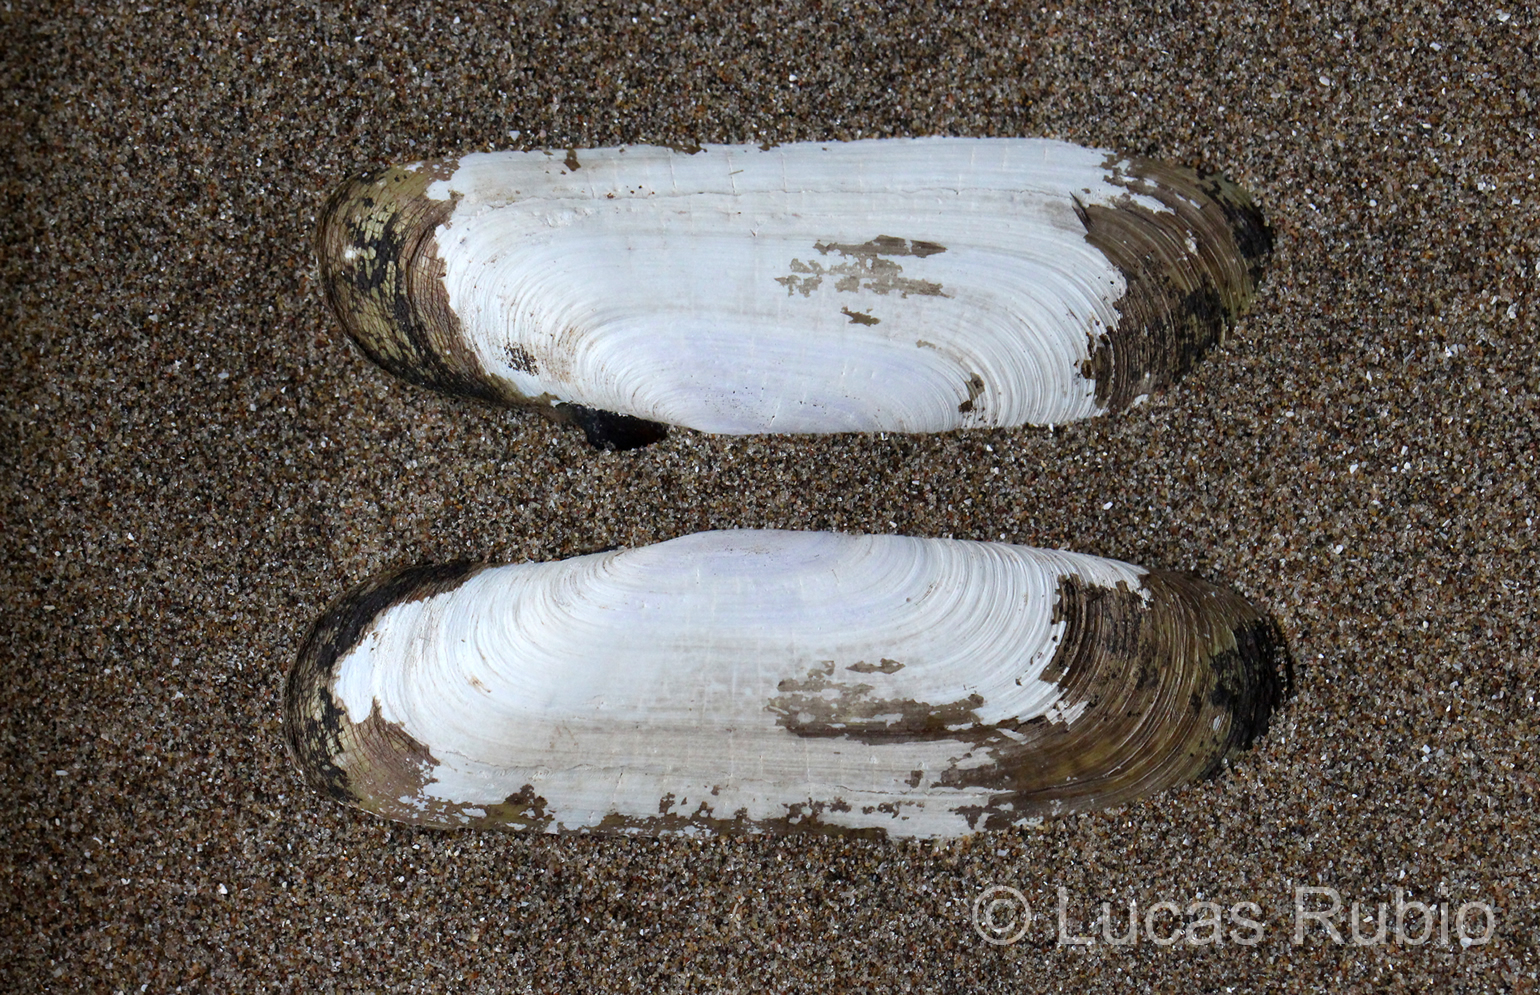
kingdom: Animalia
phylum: Mollusca
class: Bivalvia
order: Cardiida
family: Solecurtidae
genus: Tagelus
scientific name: Tagelus plebeius
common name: Stout tagelus
